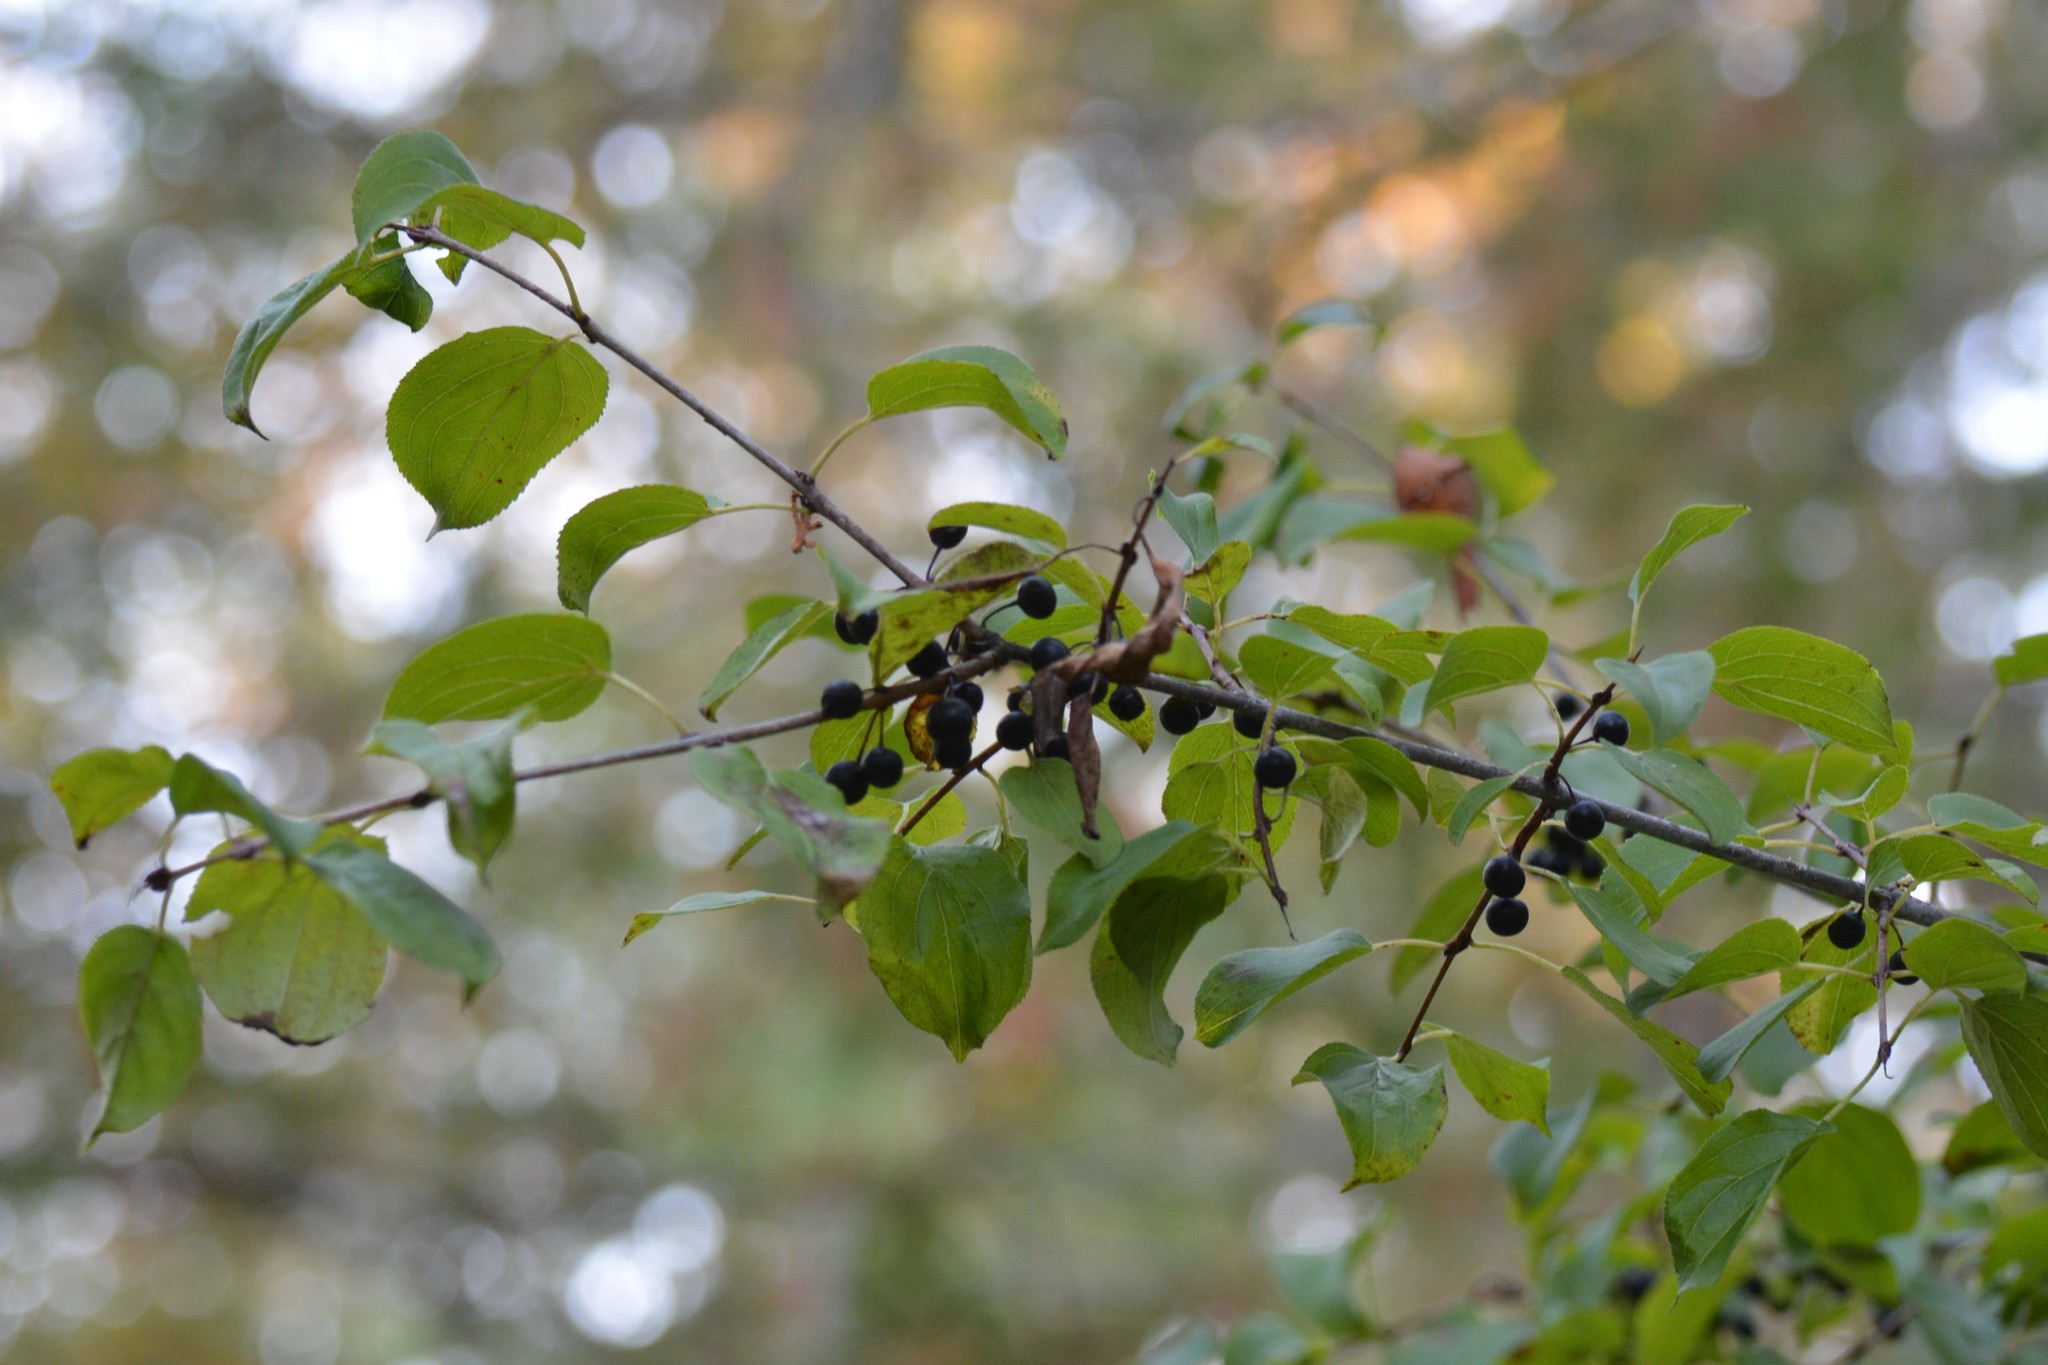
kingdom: Plantae
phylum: Tracheophyta
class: Magnoliopsida
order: Rosales
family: Rhamnaceae
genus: Rhamnus
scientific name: Rhamnus cathartica
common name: Common buckthorn
